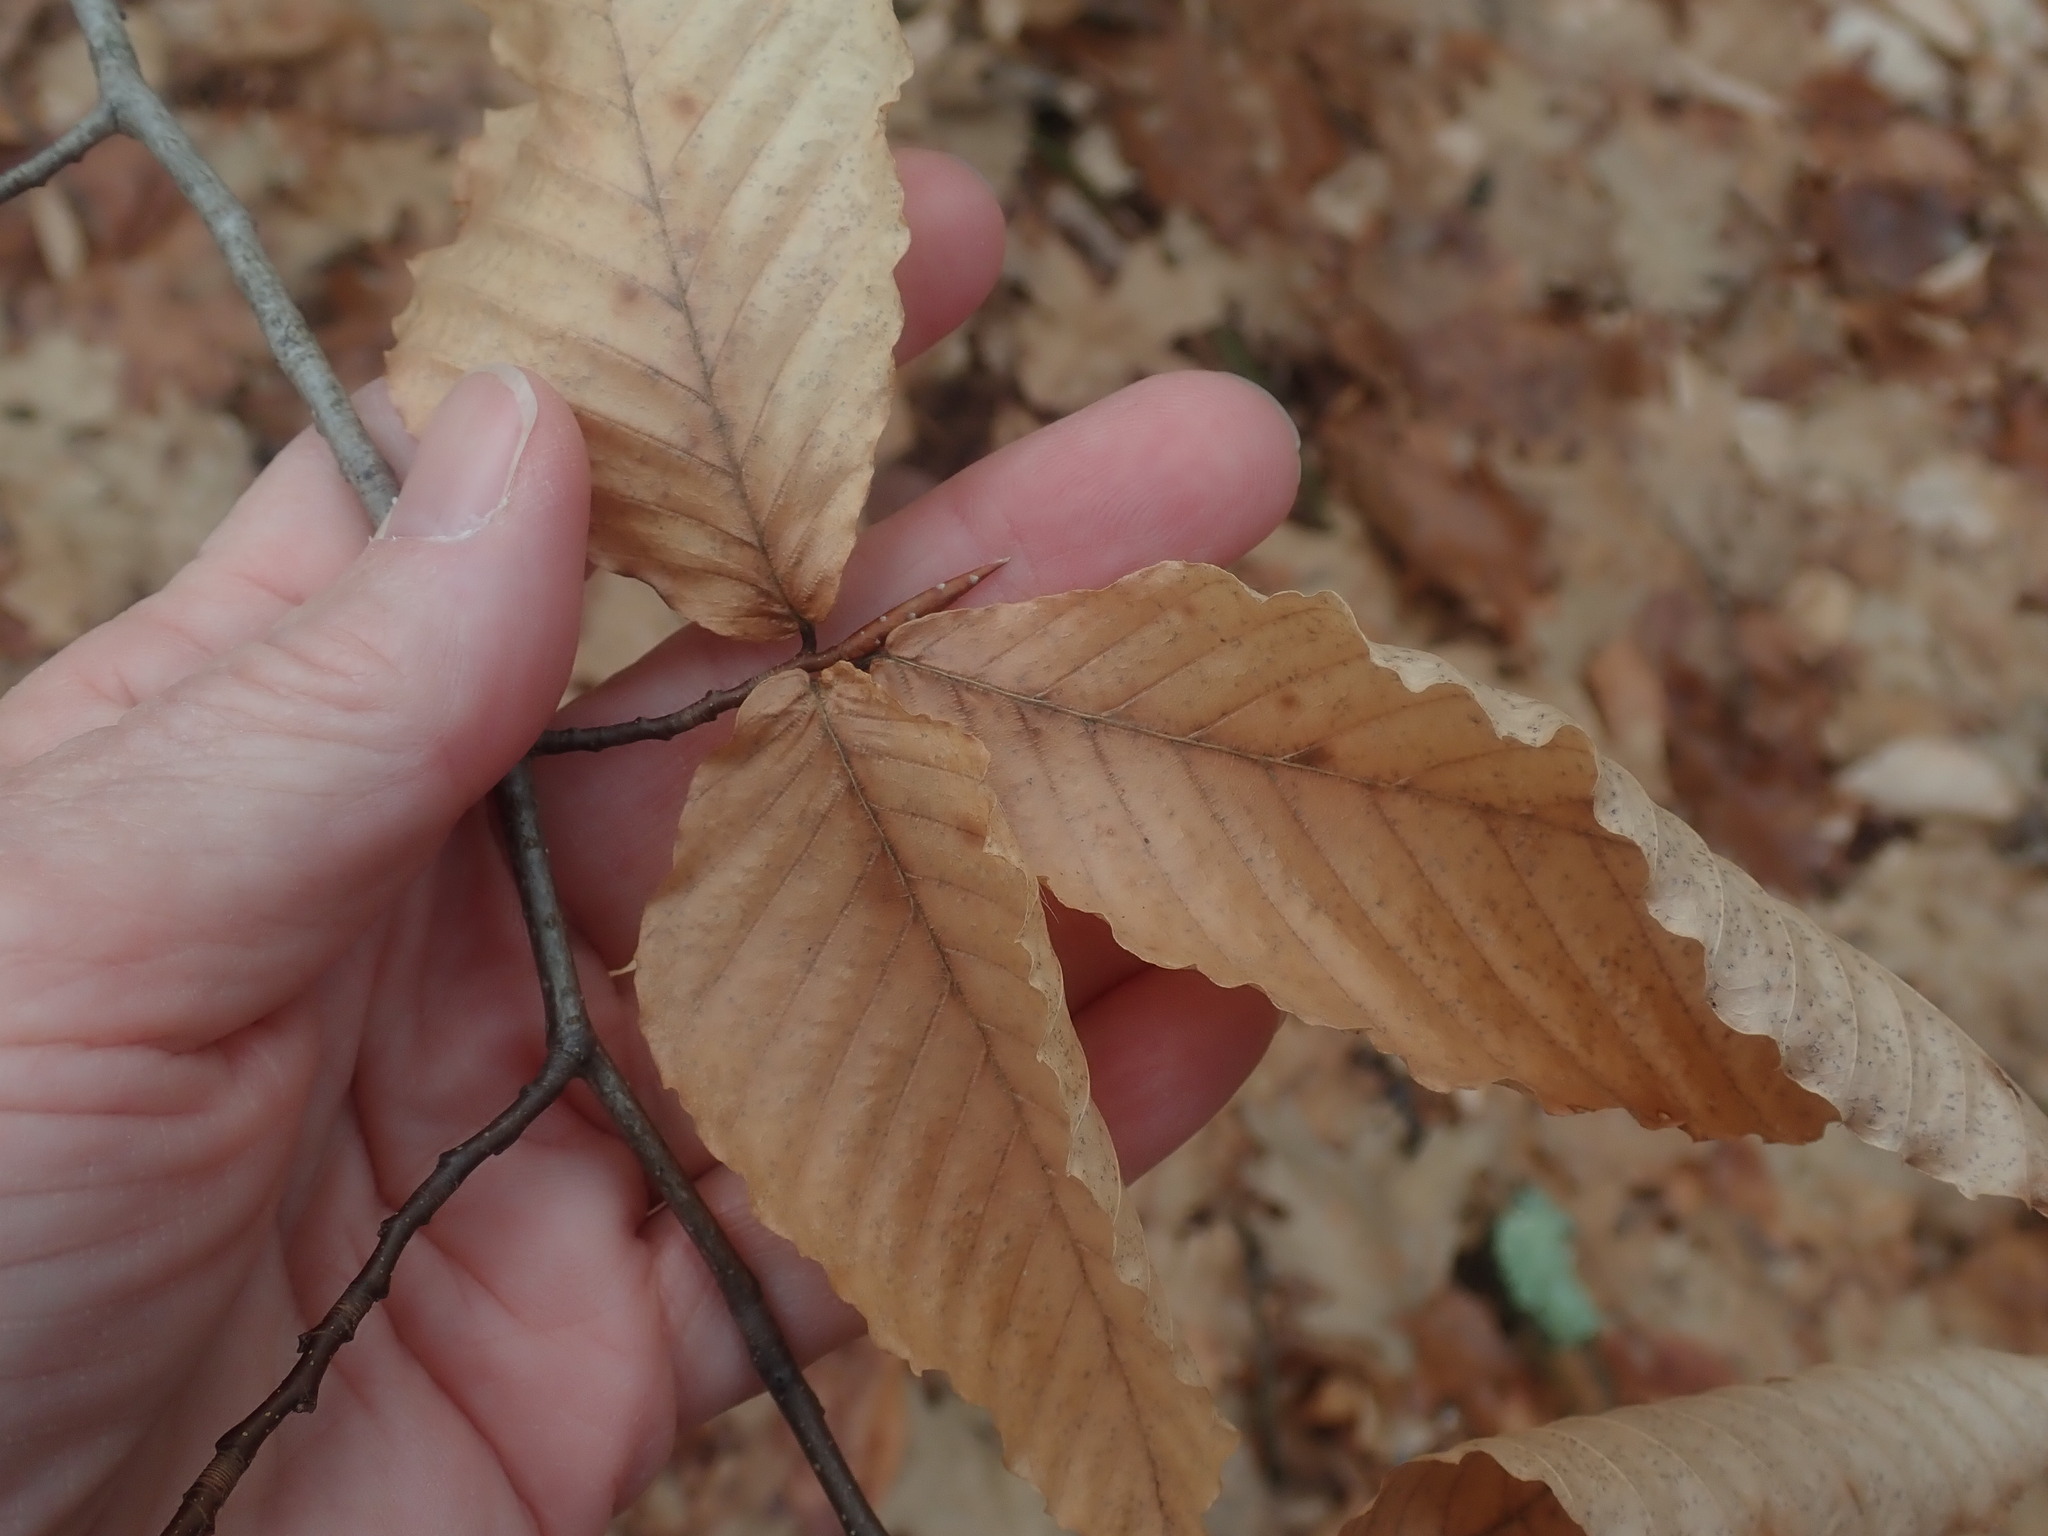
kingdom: Plantae
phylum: Tracheophyta
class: Magnoliopsida
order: Fagales
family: Fagaceae
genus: Fagus
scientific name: Fagus grandifolia
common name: American beech
